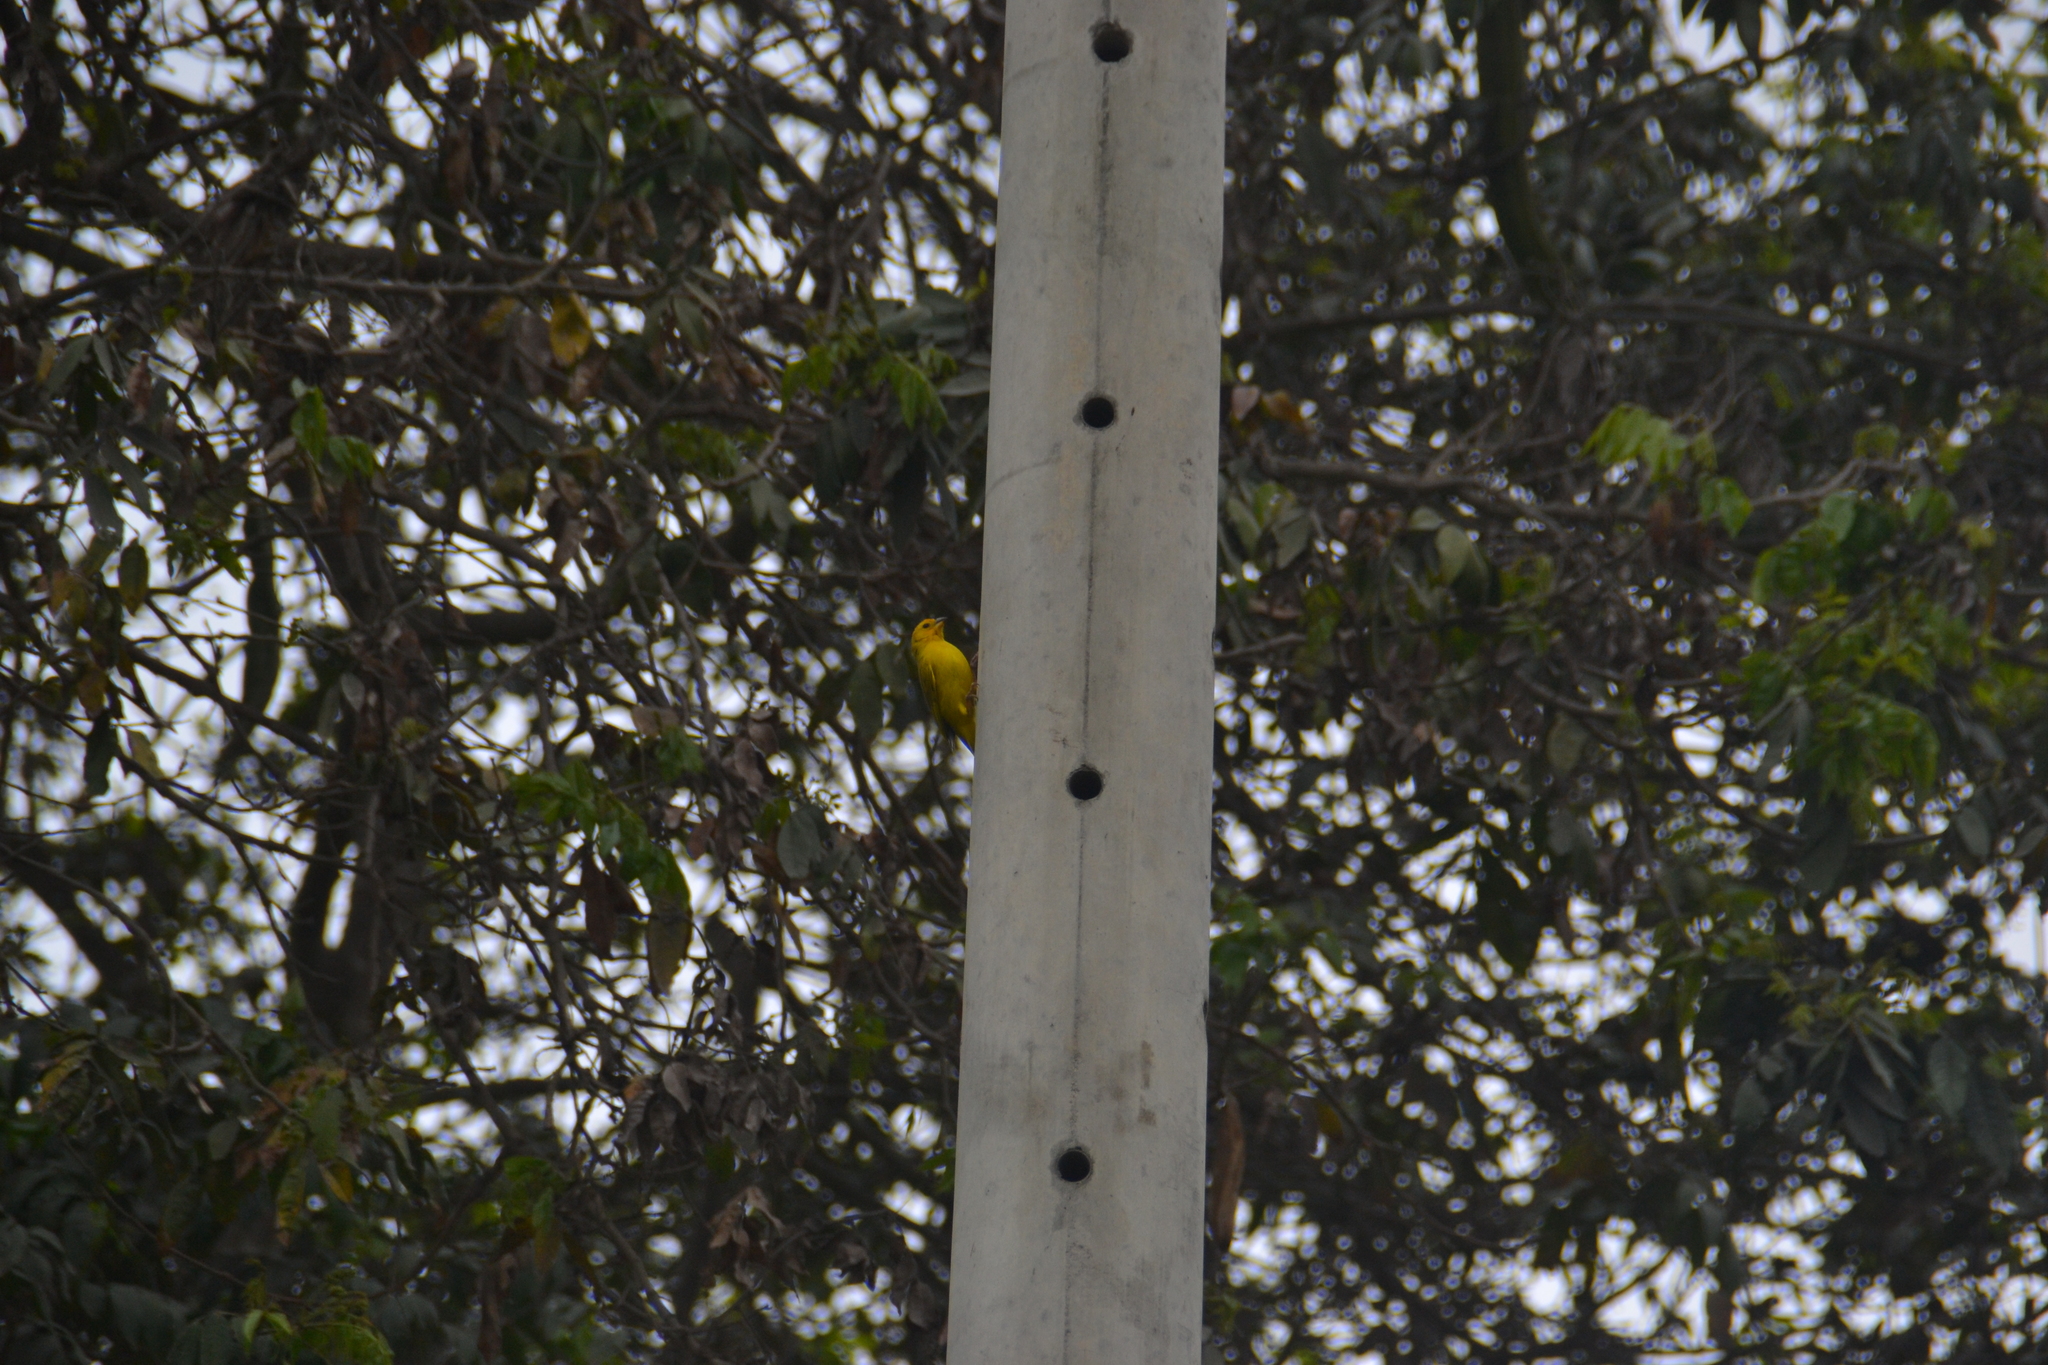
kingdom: Animalia
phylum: Chordata
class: Aves
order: Passeriformes
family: Thraupidae
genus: Sicalis
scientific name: Sicalis flaveola
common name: Saffron finch
